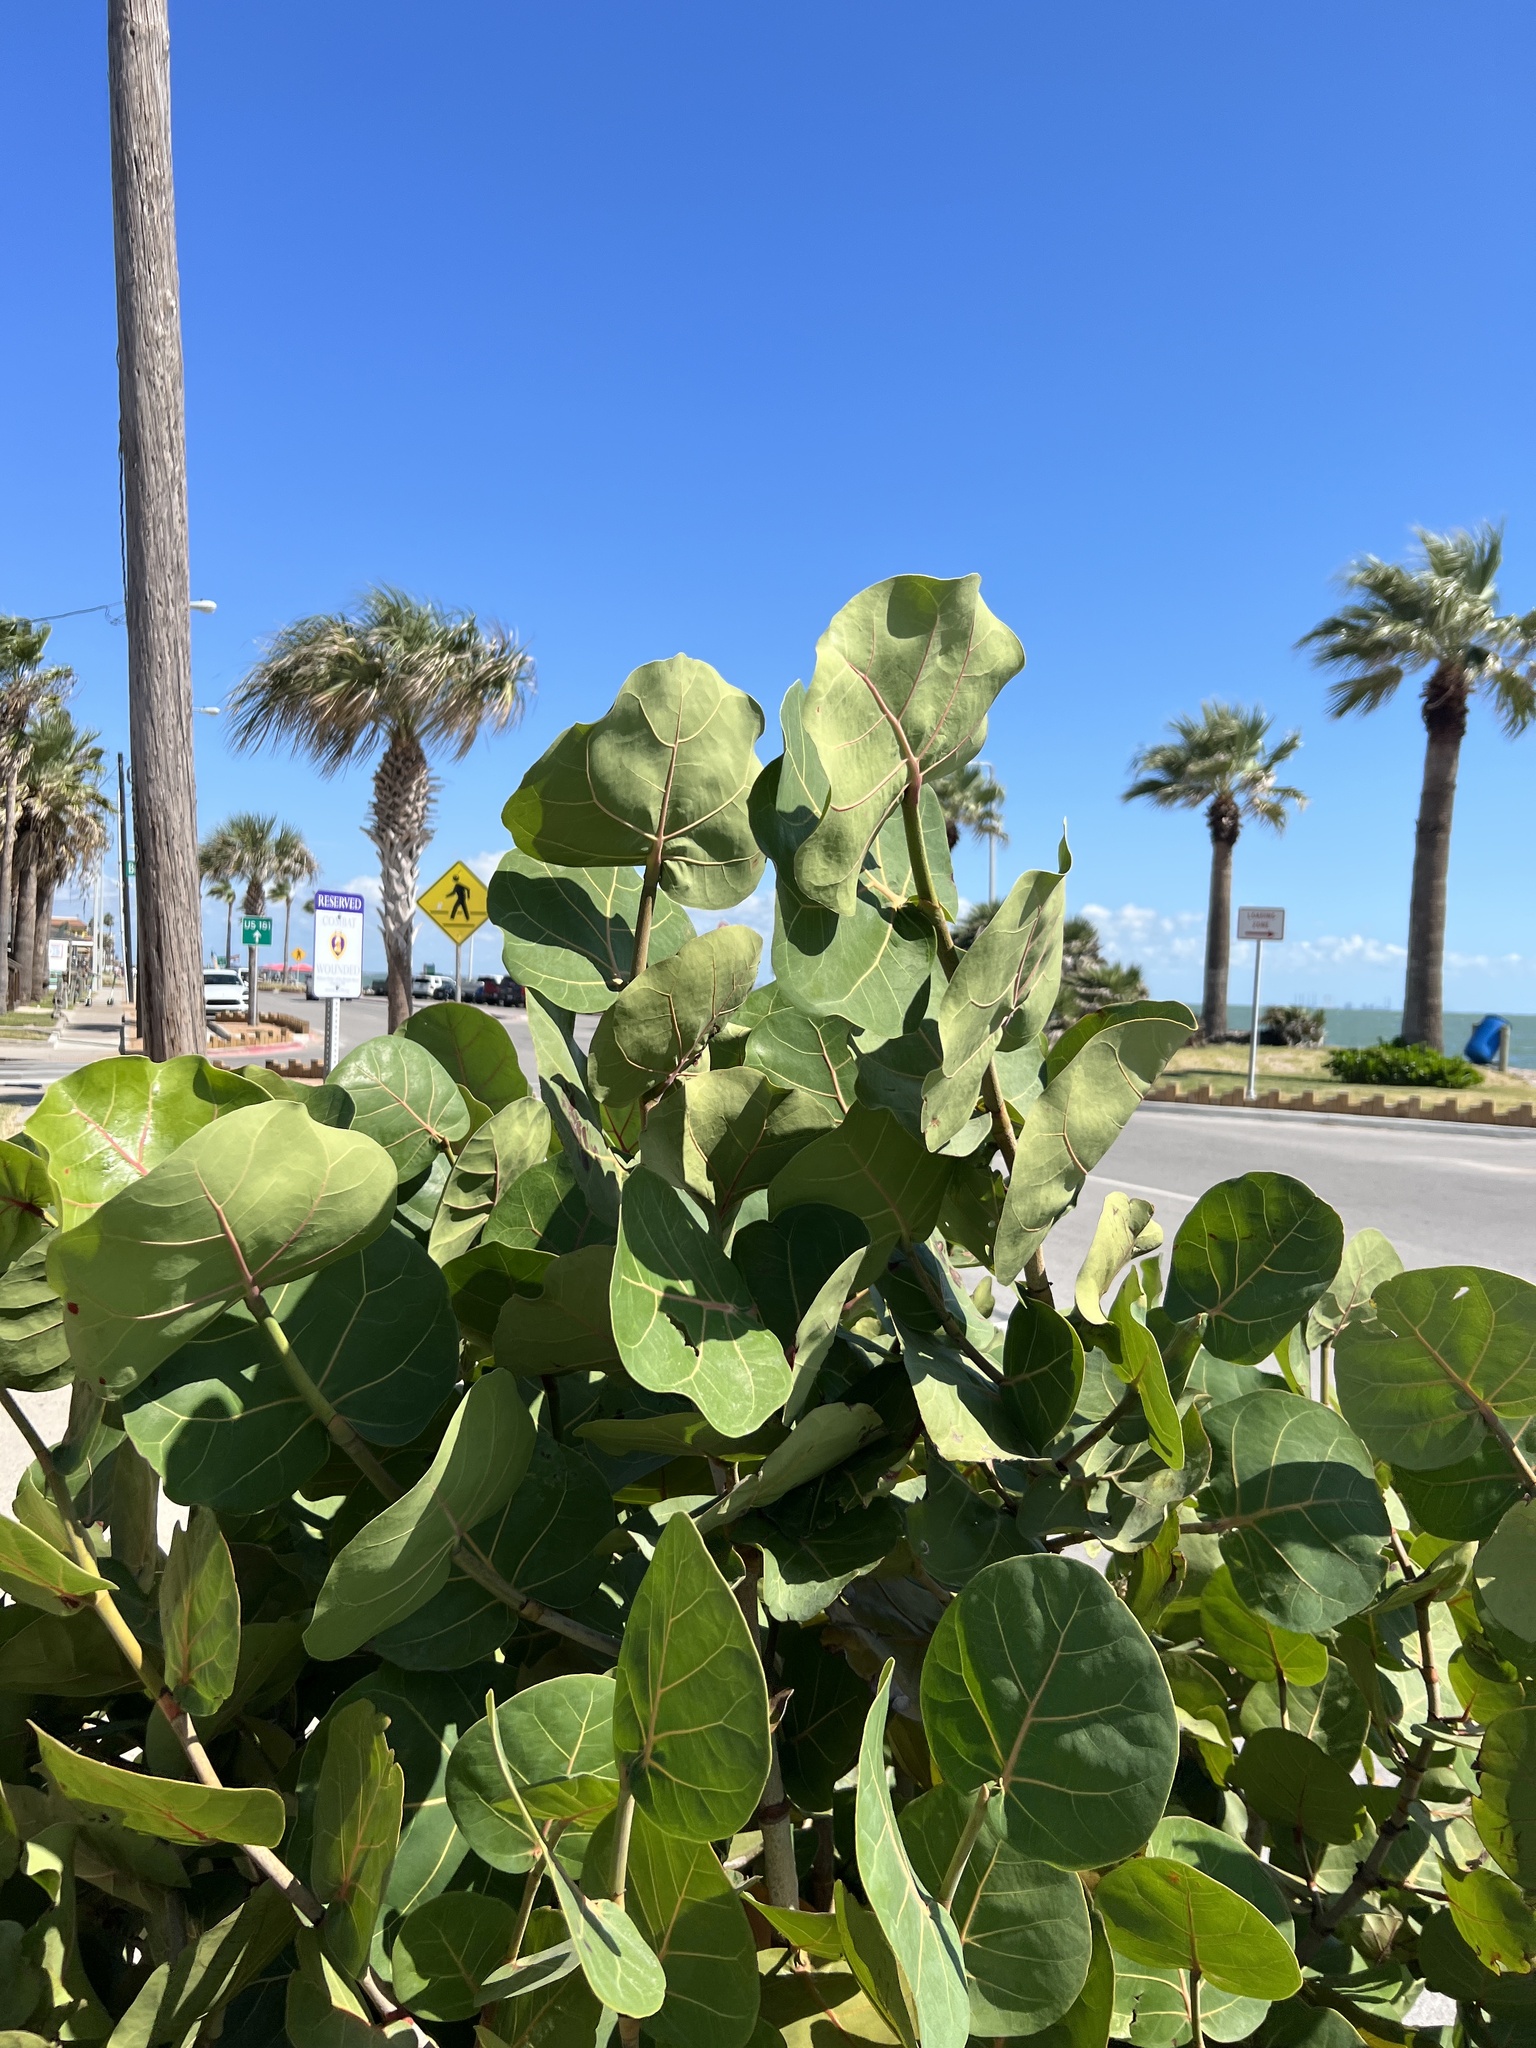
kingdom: Plantae
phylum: Tracheophyta
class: Magnoliopsida
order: Caryophyllales
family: Polygonaceae
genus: Coccoloba
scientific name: Coccoloba uvifera
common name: Seagrape
